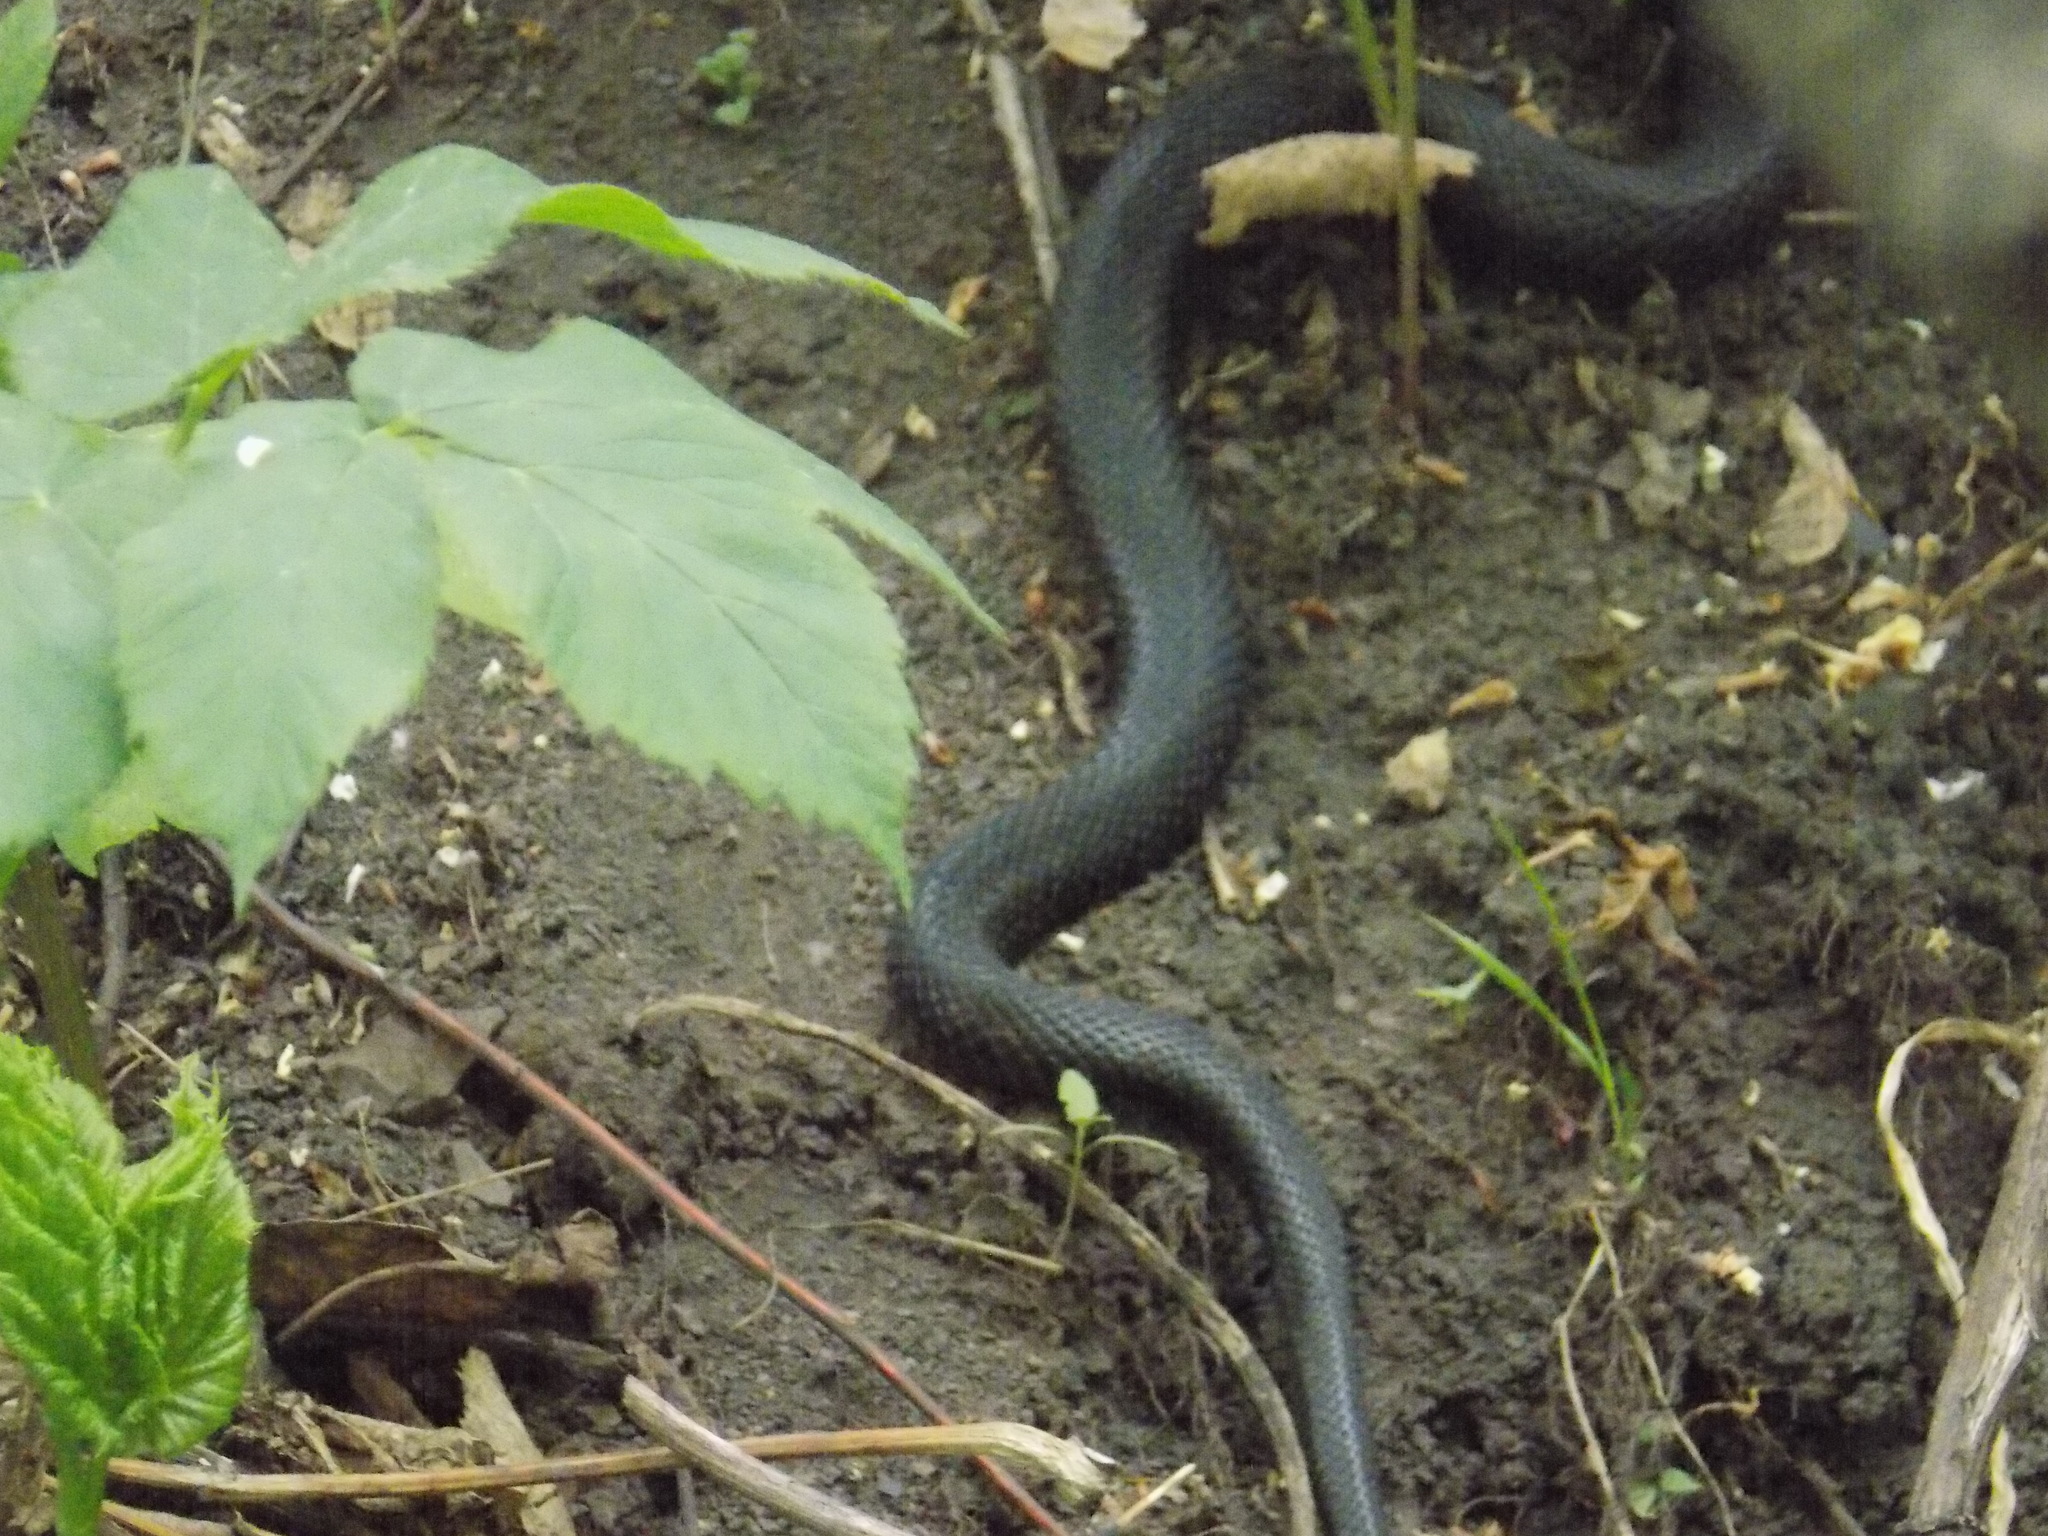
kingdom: Animalia
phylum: Chordata
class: Squamata
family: Viperidae
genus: Vipera
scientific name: Vipera berus
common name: Adder
